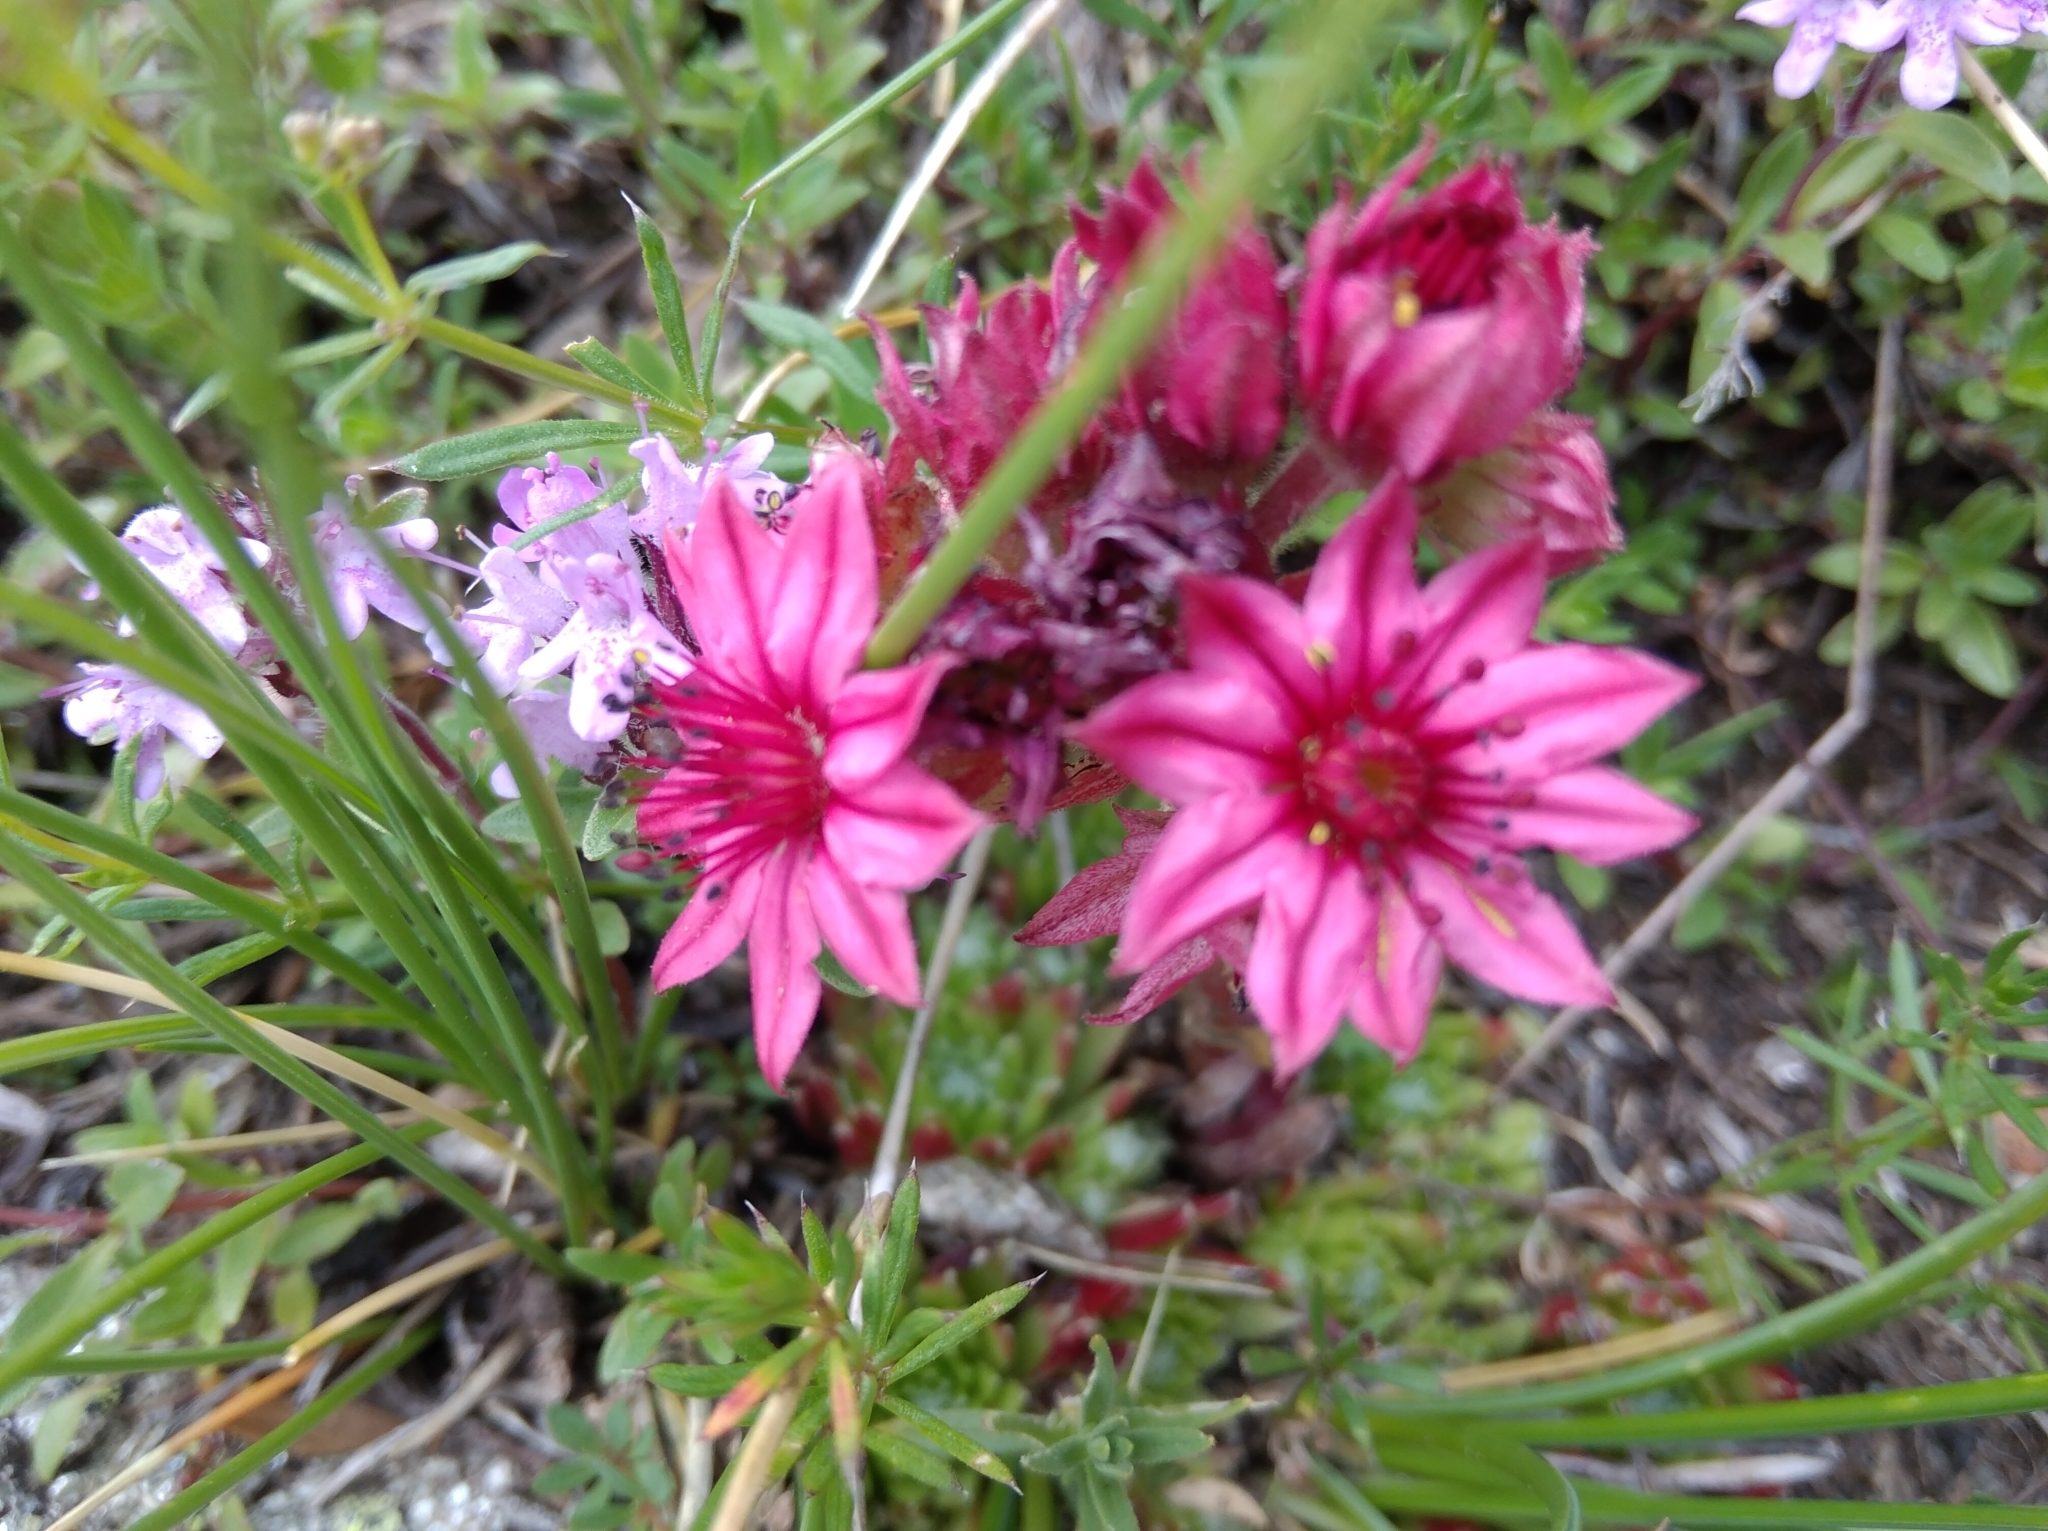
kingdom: Plantae
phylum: Tracheophyta
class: Magnoliopsida
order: Saxifragales
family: Crassulaceae
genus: Sempervivum
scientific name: Sempervivum arachnoideum
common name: Cobweb house-leek
